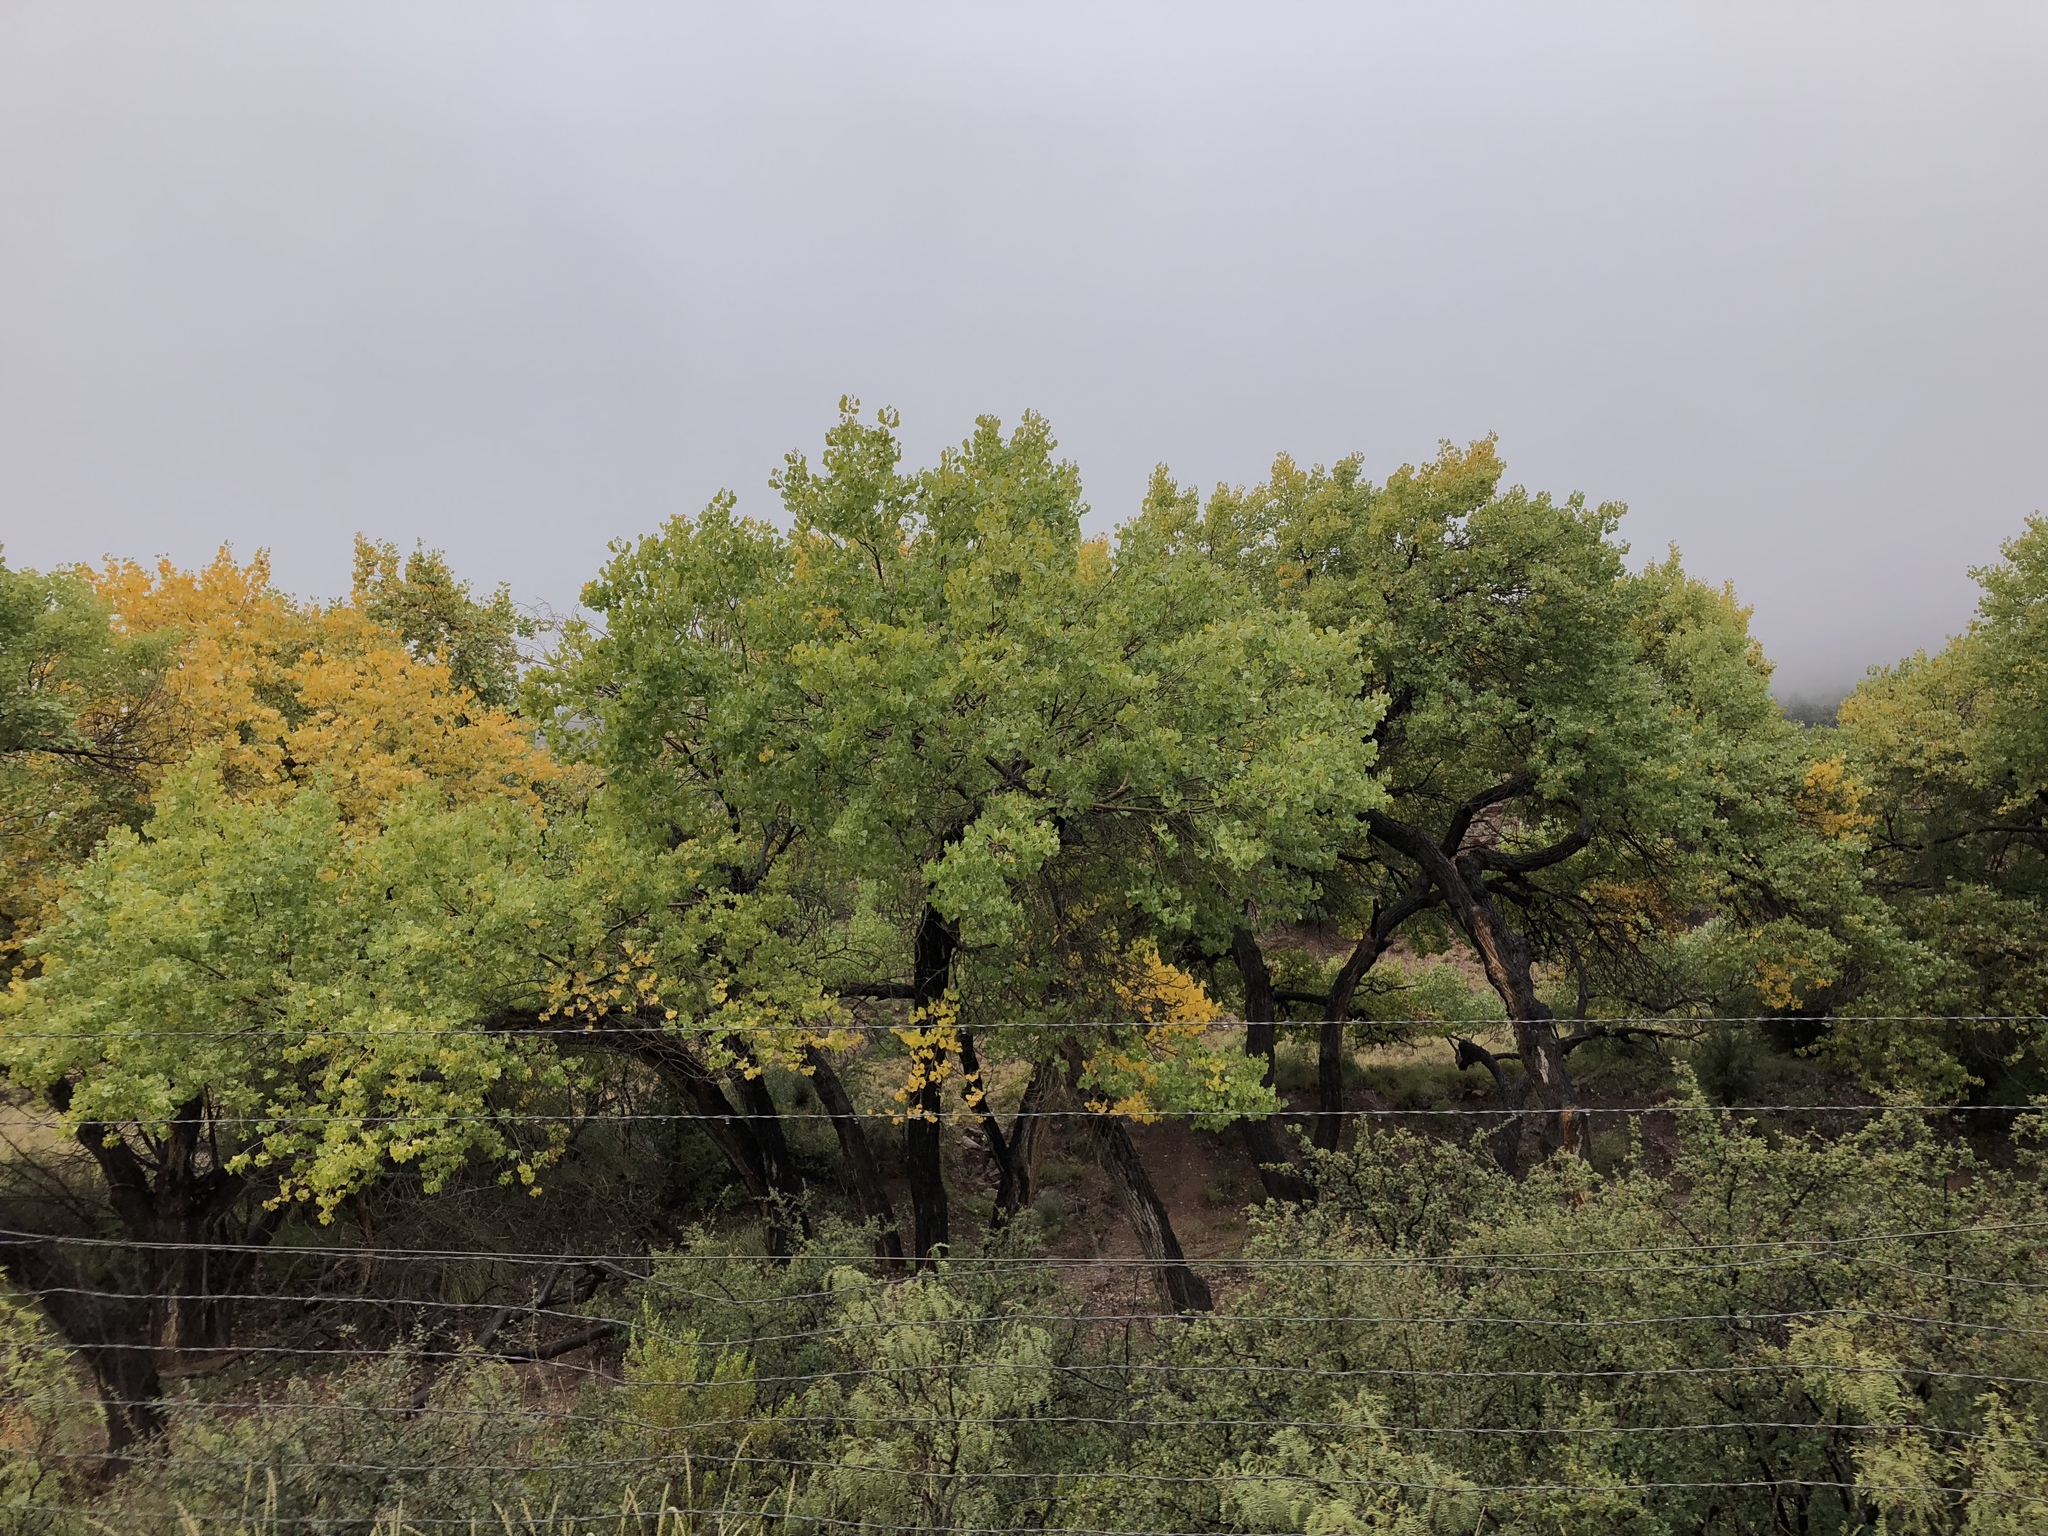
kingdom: Plantae
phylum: Tracheophyta
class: Magnoliopsida
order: Malpighiales
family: Salicaceae
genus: Populus
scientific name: Populus fremontii
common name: Fremont's cottonwood
